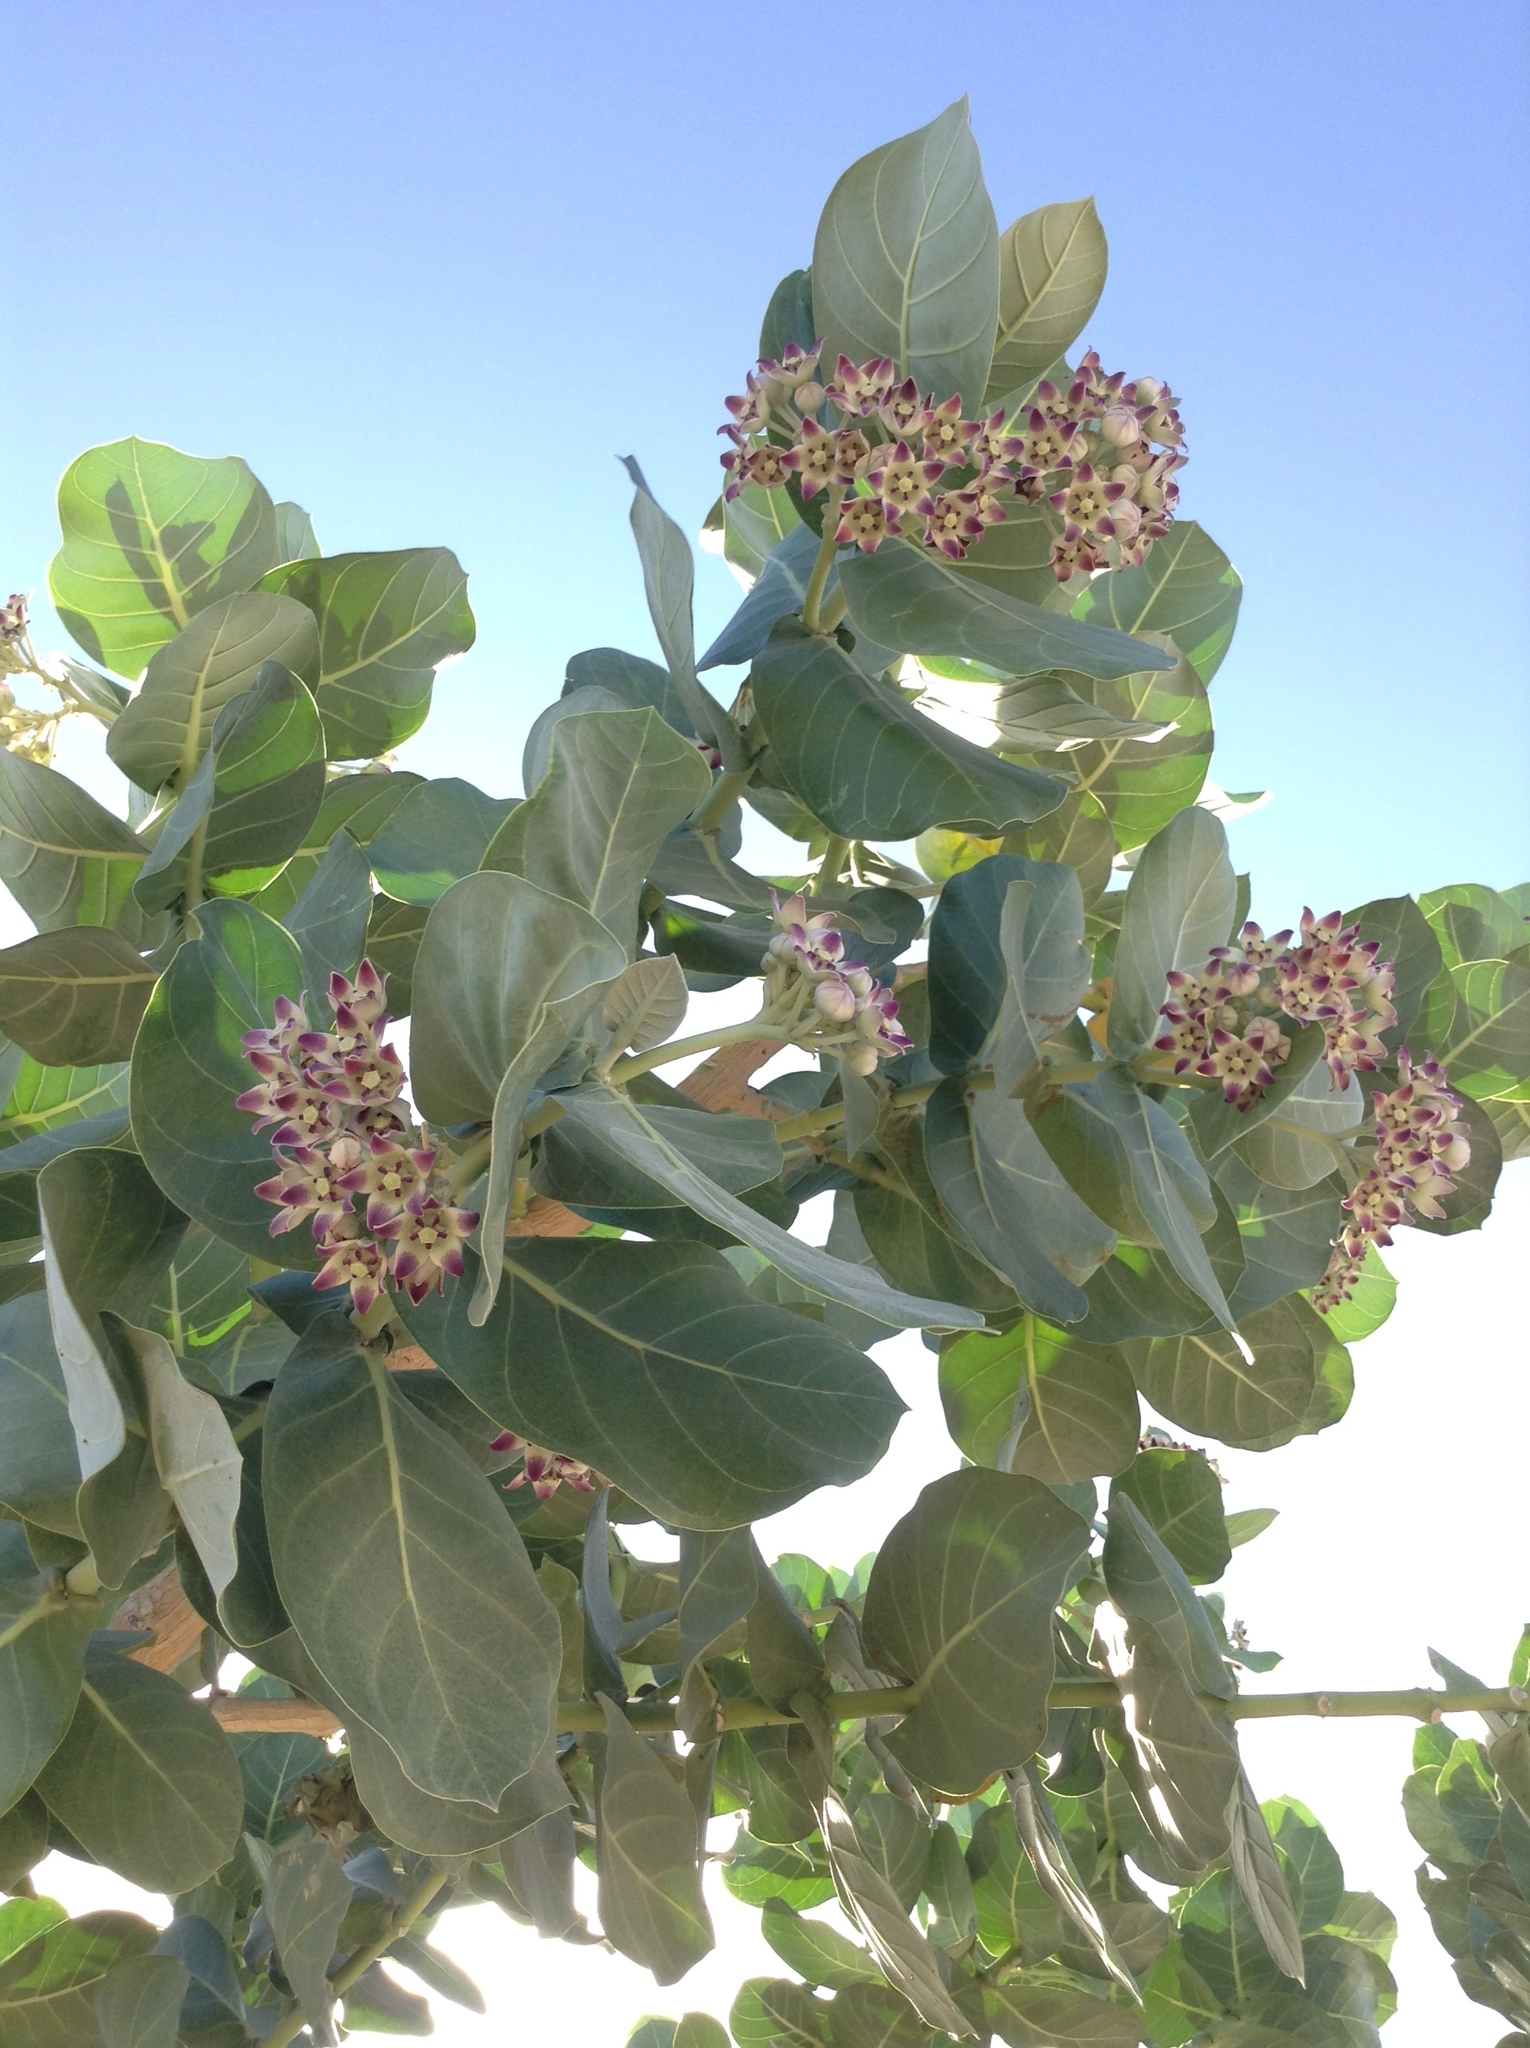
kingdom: Plantae
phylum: Tracheophyta
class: Magnoliopsida
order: Gentianales
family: Apocynaceae
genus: Calotropis
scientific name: Calotropis procera
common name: Roostertree
